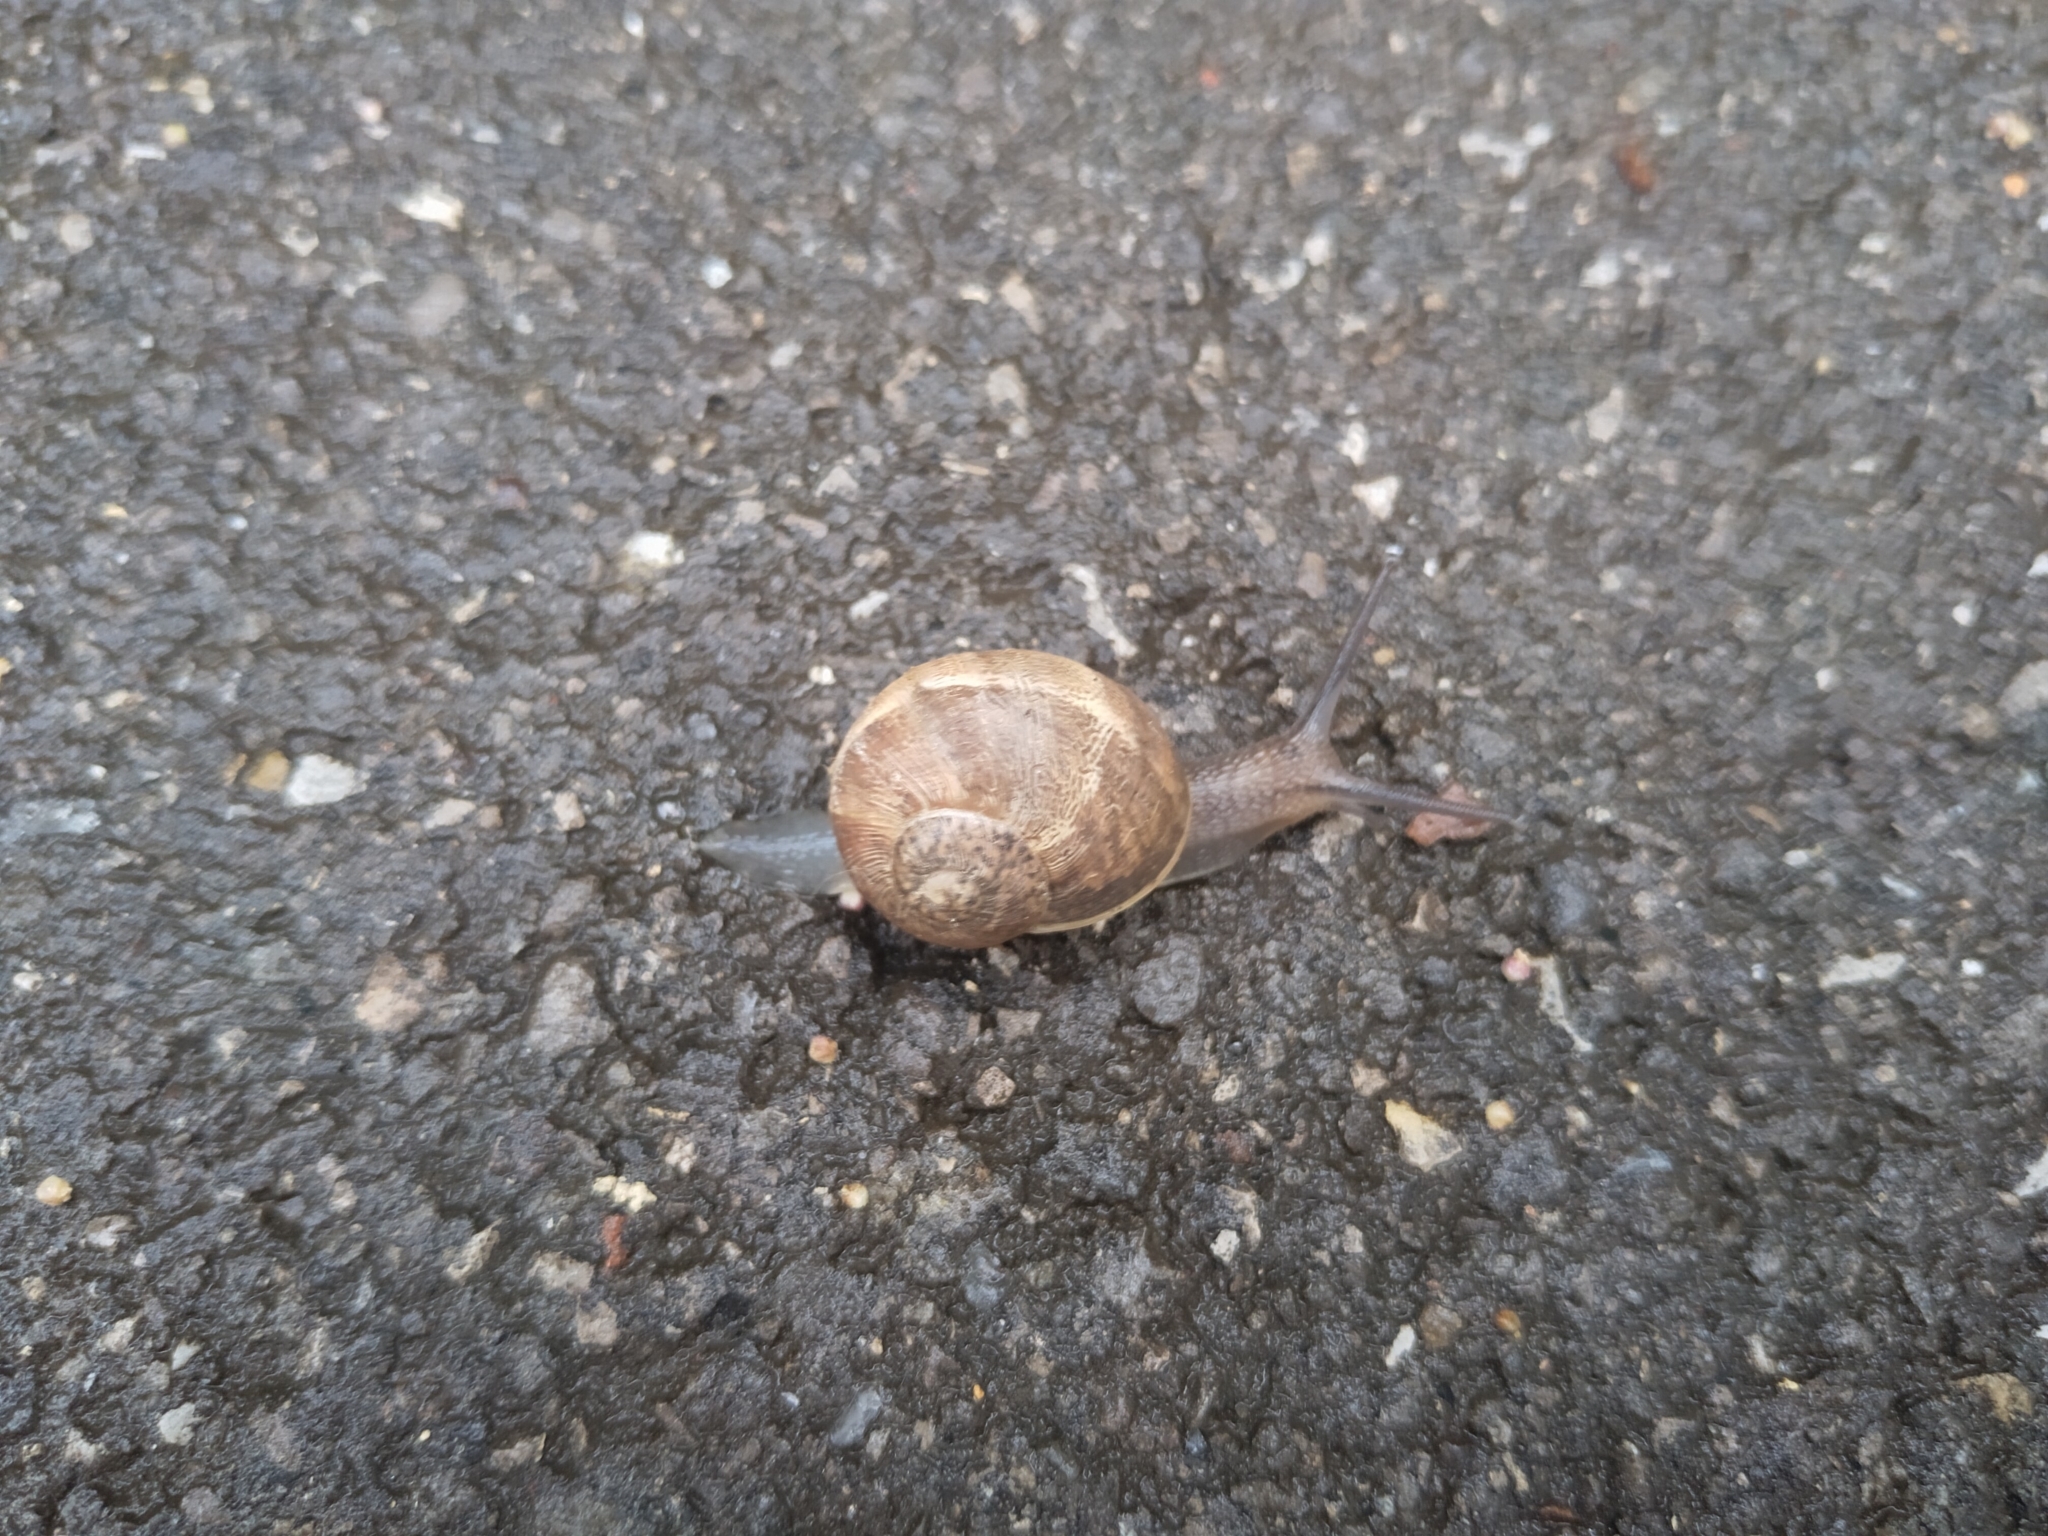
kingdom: Animalia
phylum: Mollusca
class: Gastropoda
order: Stylommatophora
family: Helicidae
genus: Cornu
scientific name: Cornu aspersum
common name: Brown garden snail
